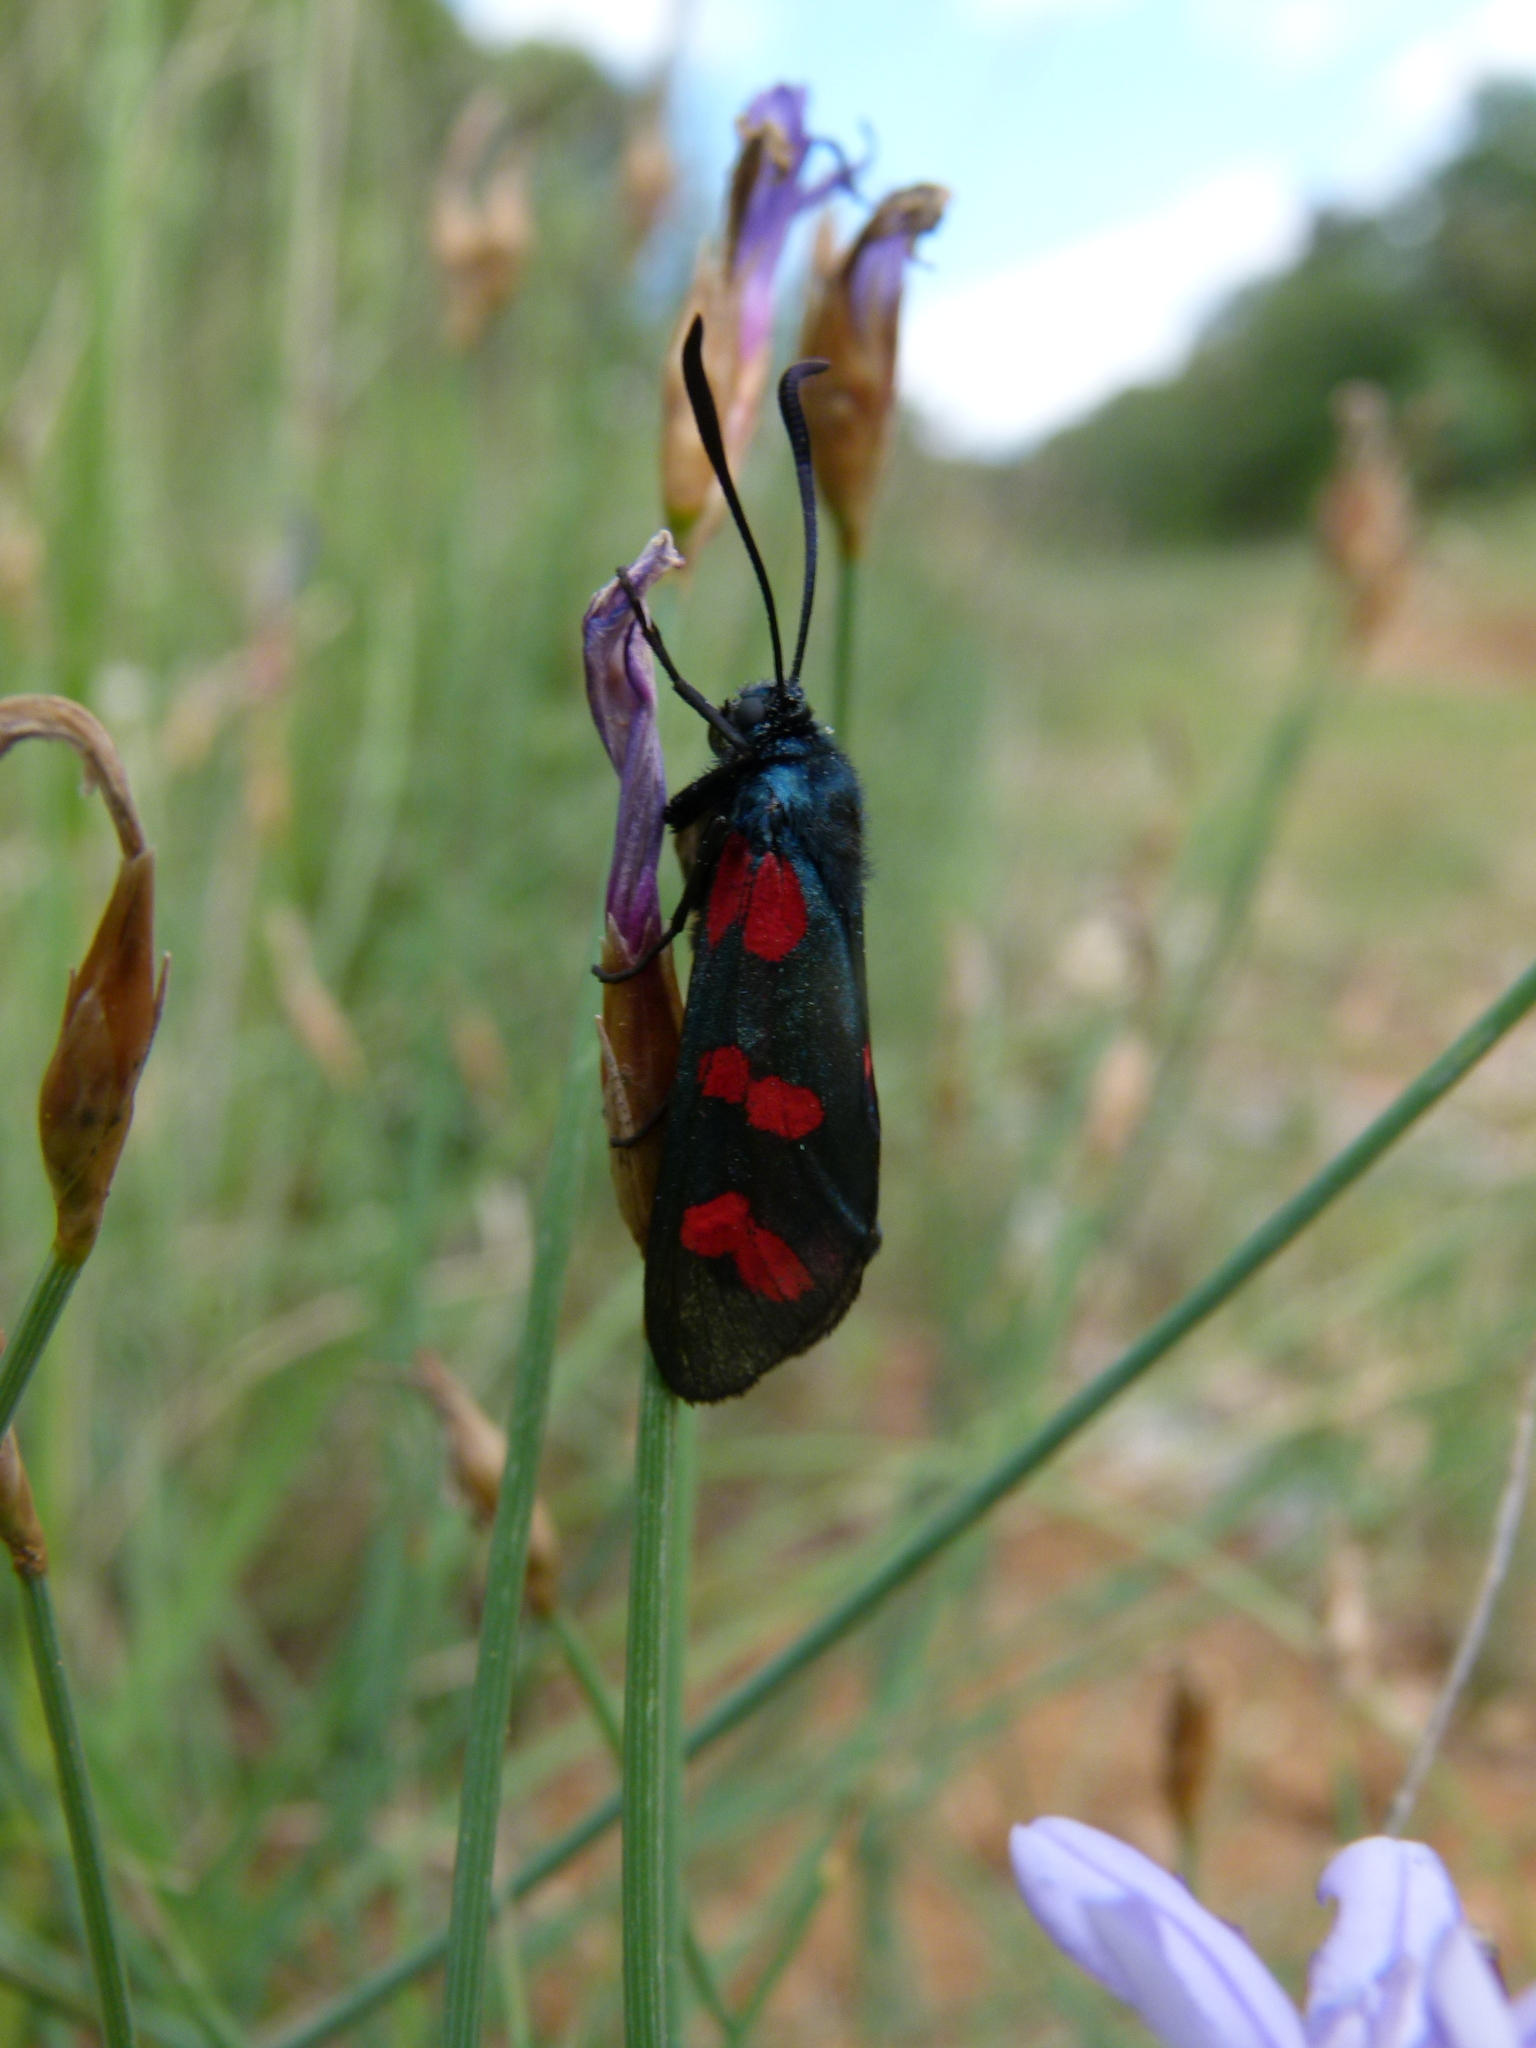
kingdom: Animalia
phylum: Arthropoda
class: Insecta
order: Lepidoptera
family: Zygaenidae
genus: Zygaena
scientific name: Zygaena filipendulae
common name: Six-spot burnet
